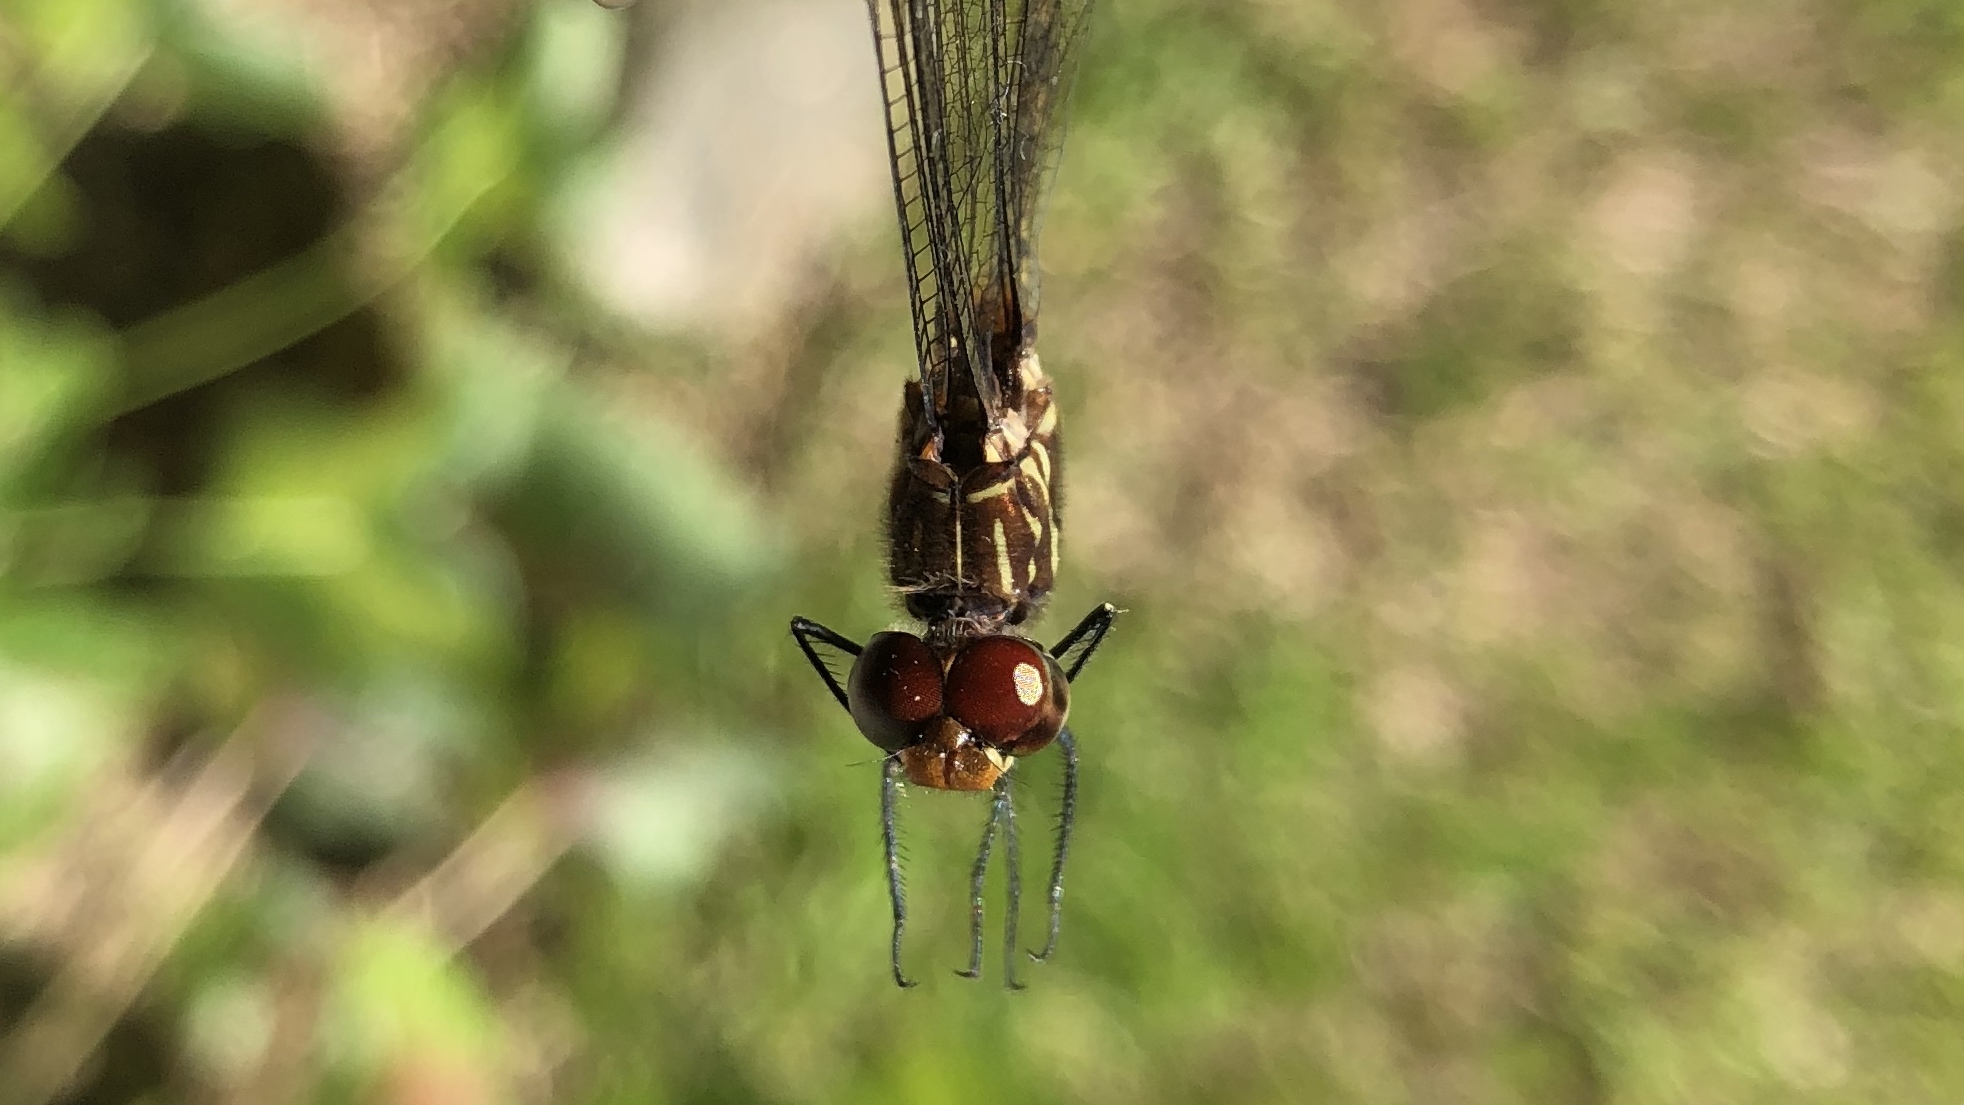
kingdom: Animalia
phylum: Arthropoda
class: Insecta
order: Odonata
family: Libellulidae
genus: Dythemis
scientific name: Dythemis sterilis
